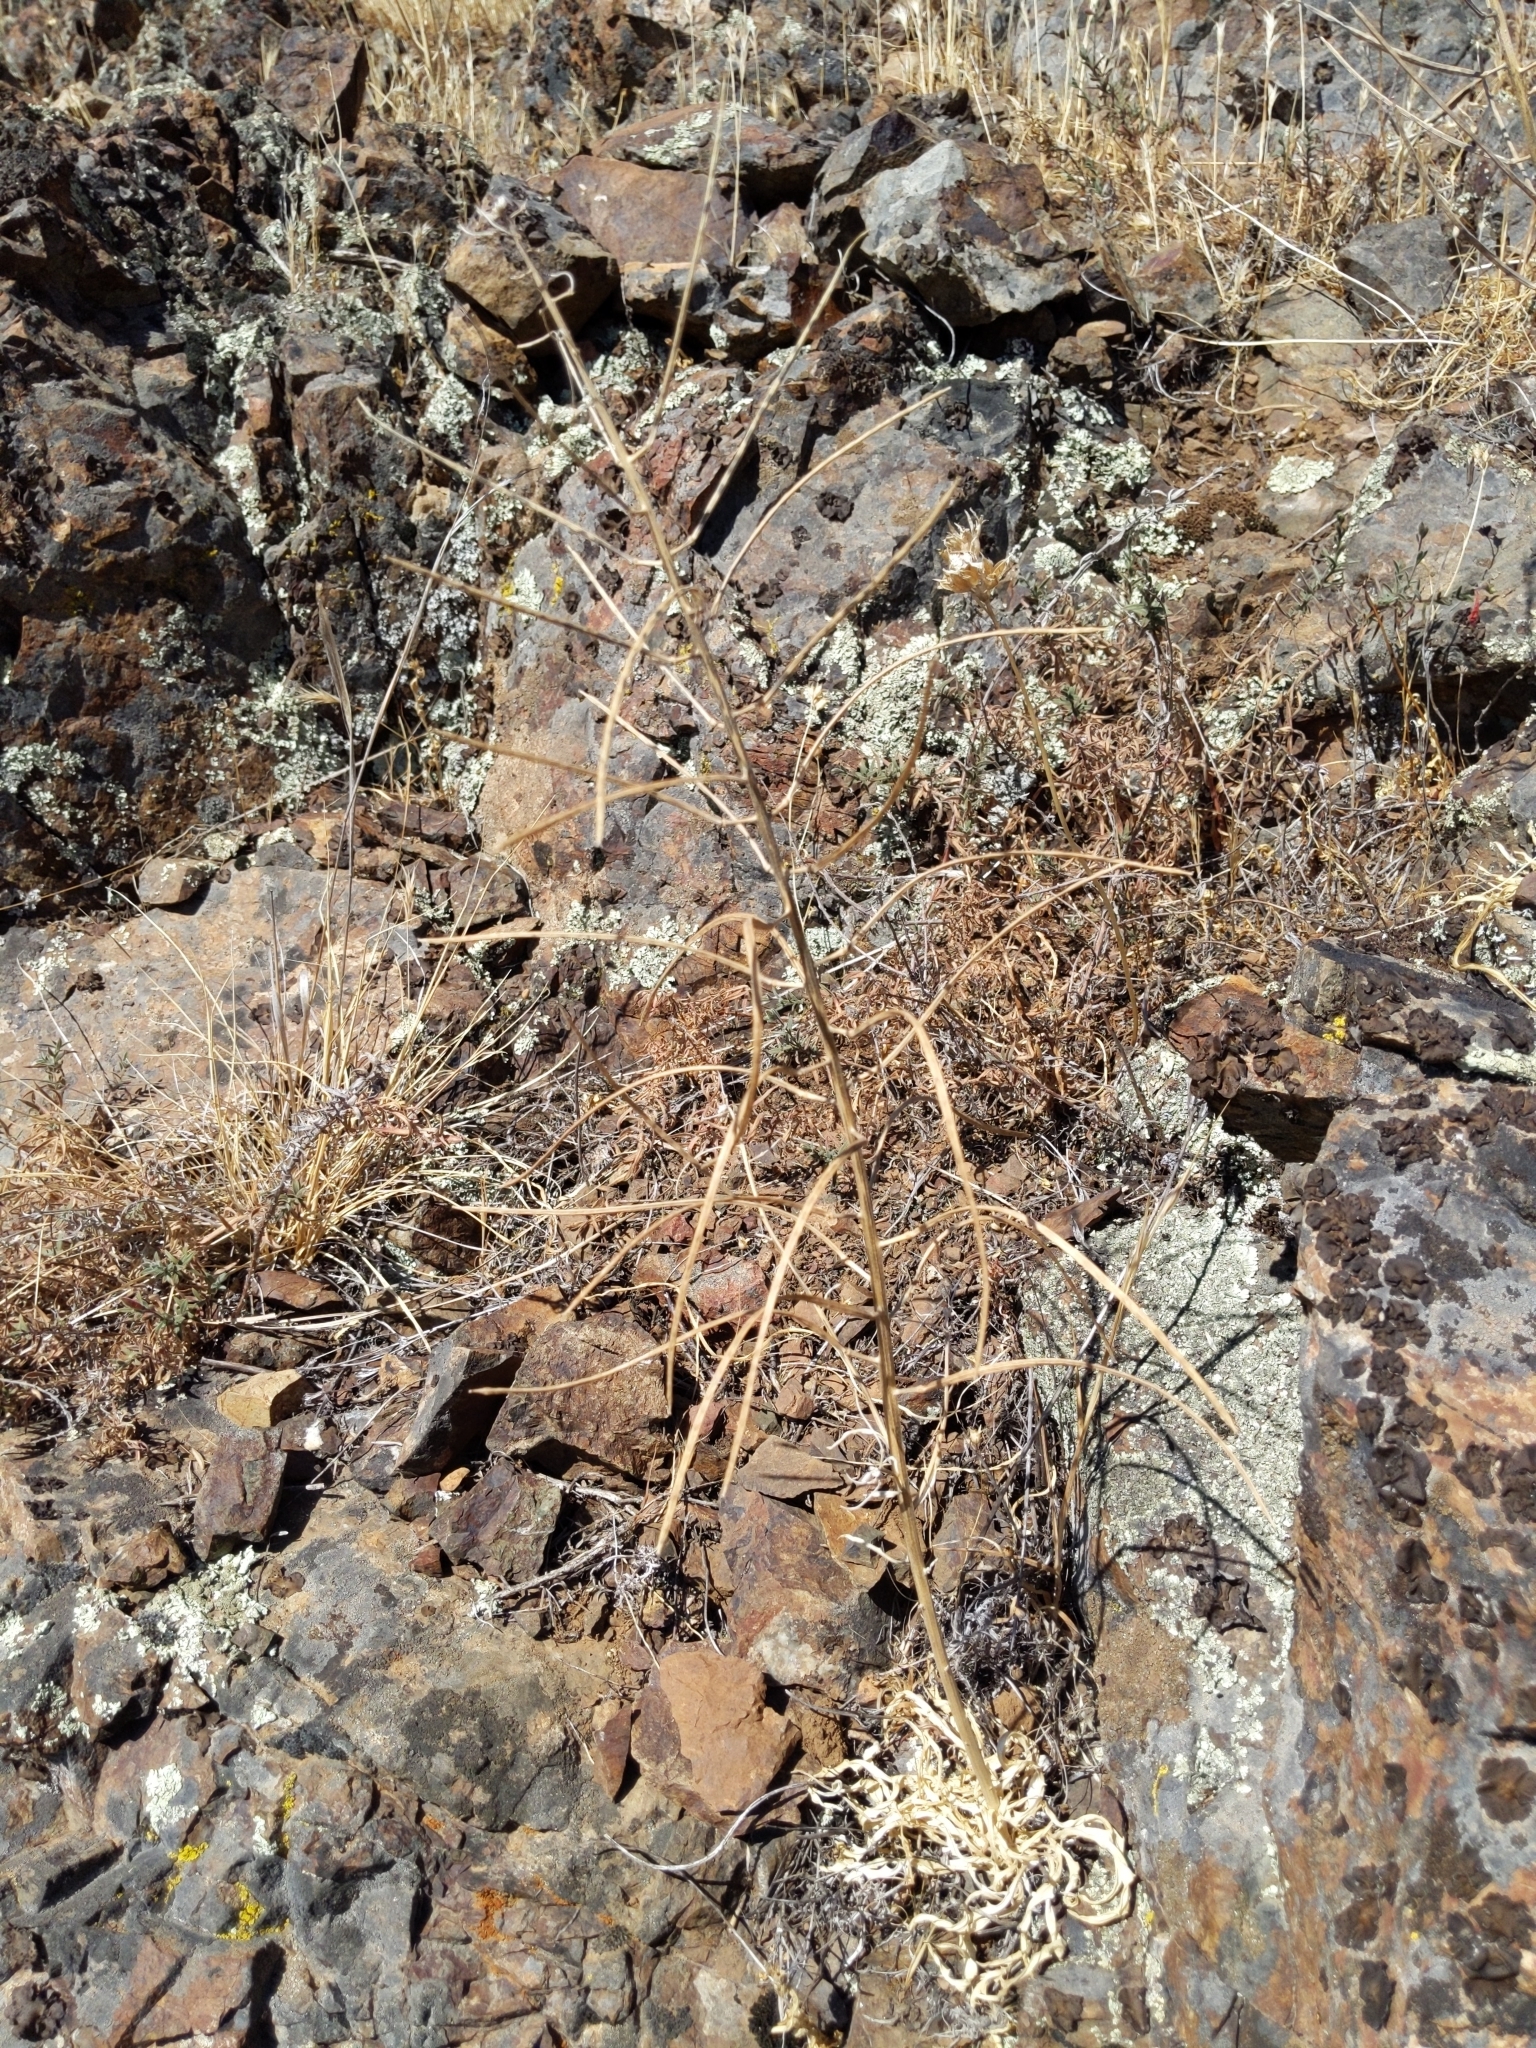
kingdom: Plantae
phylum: Tracheophyta
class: Magnoliopsida
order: Brassicales
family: Brassicaceae
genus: Erysimum
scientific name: Erysimum capitatum
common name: Western wallflower
